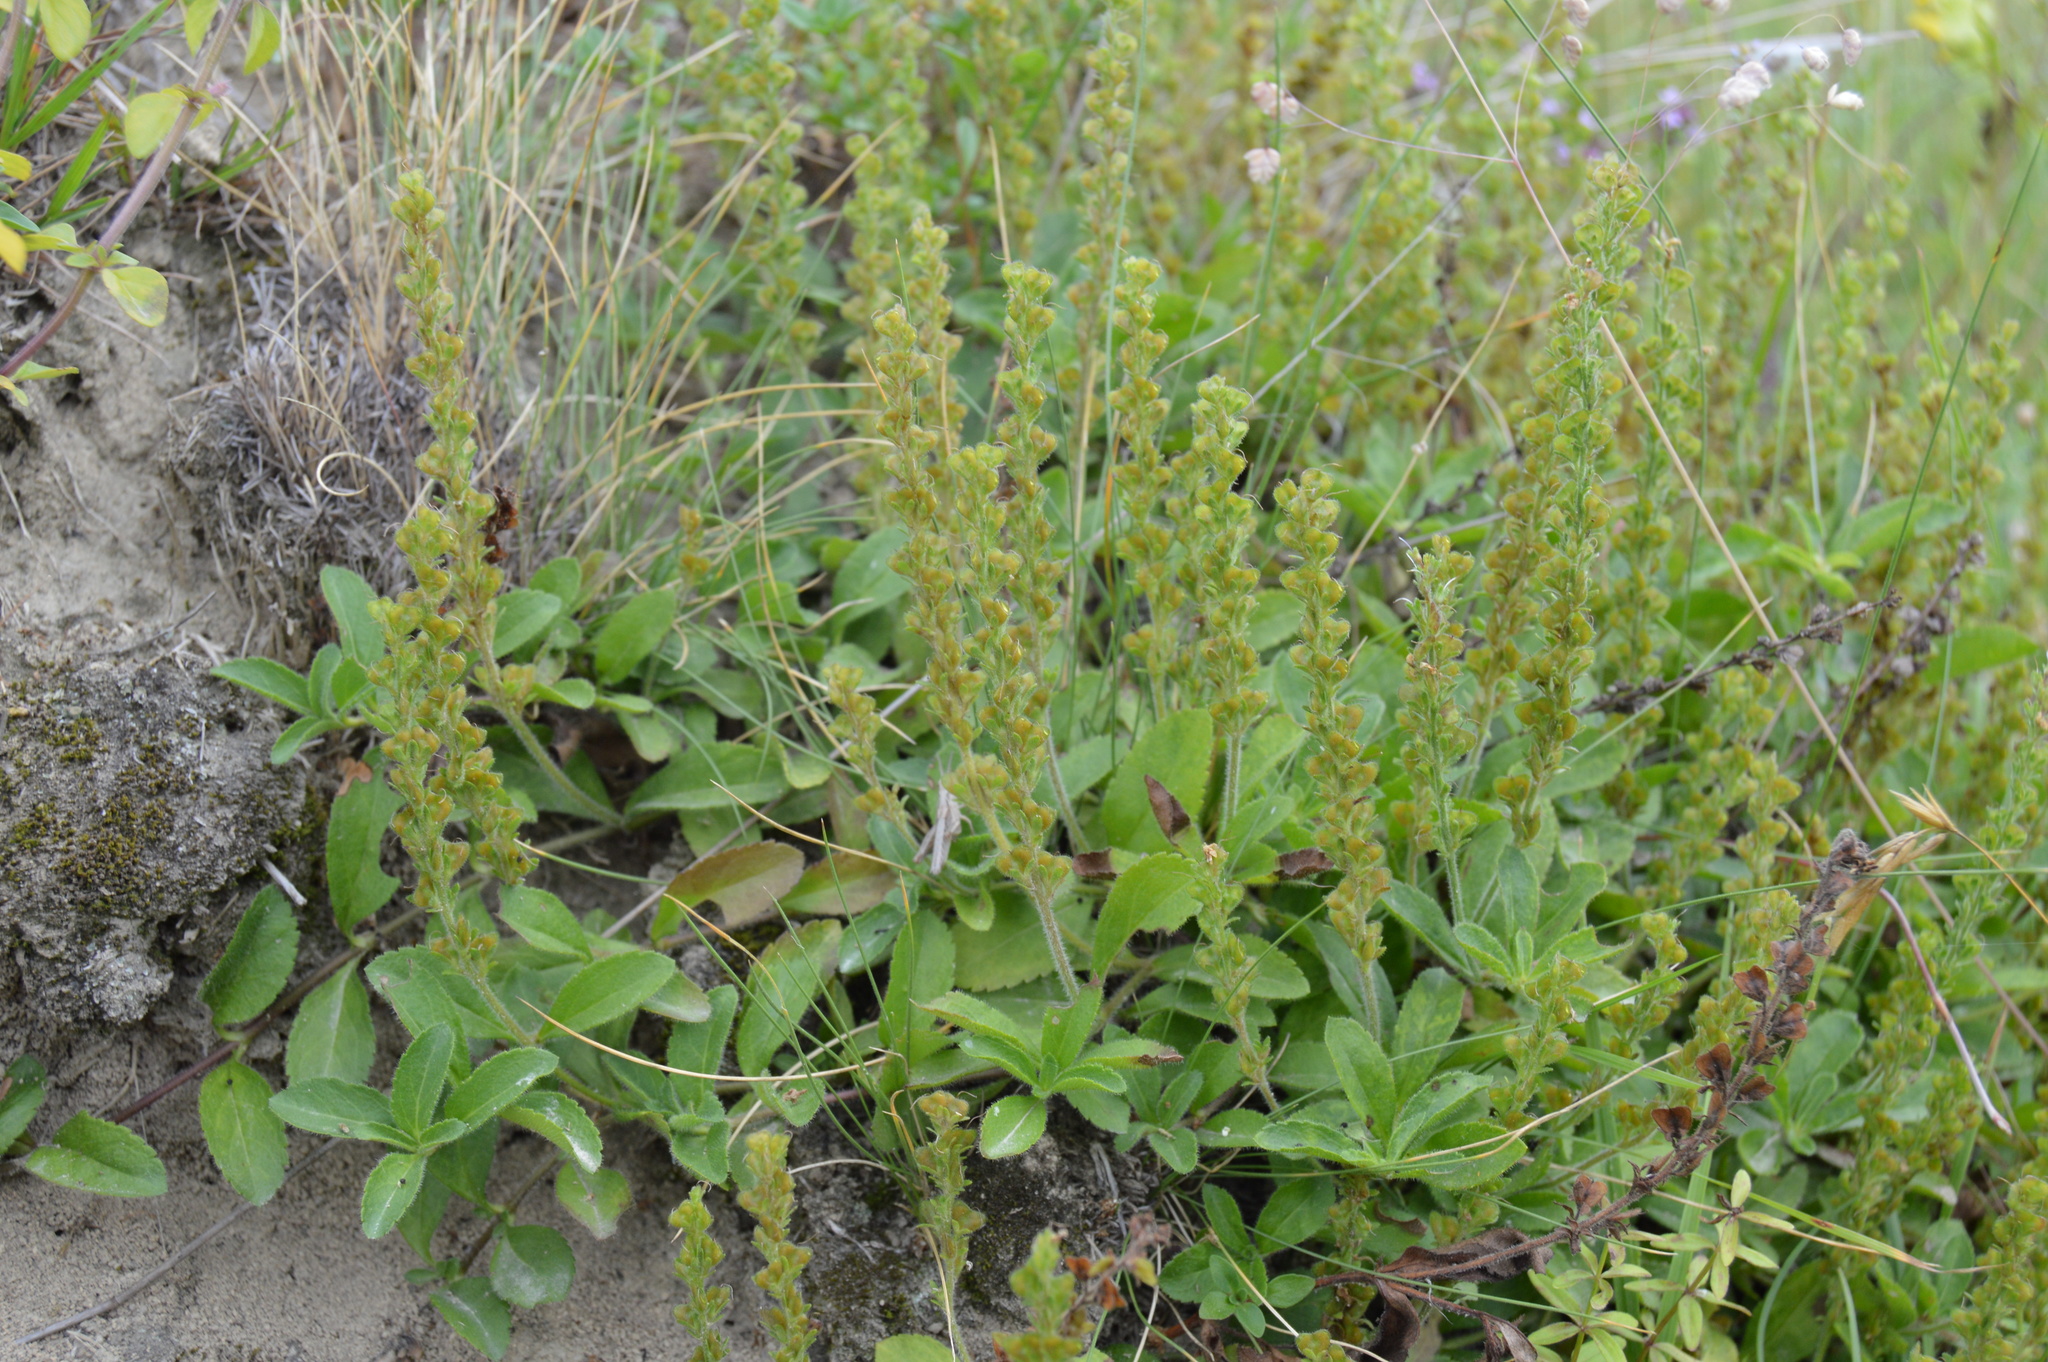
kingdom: Plantae
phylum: Tracheophyta
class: Magnoliopsida
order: Lamiales
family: Plantaginaceae
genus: Veronica
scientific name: Veronica officinalis
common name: Common speedwell
